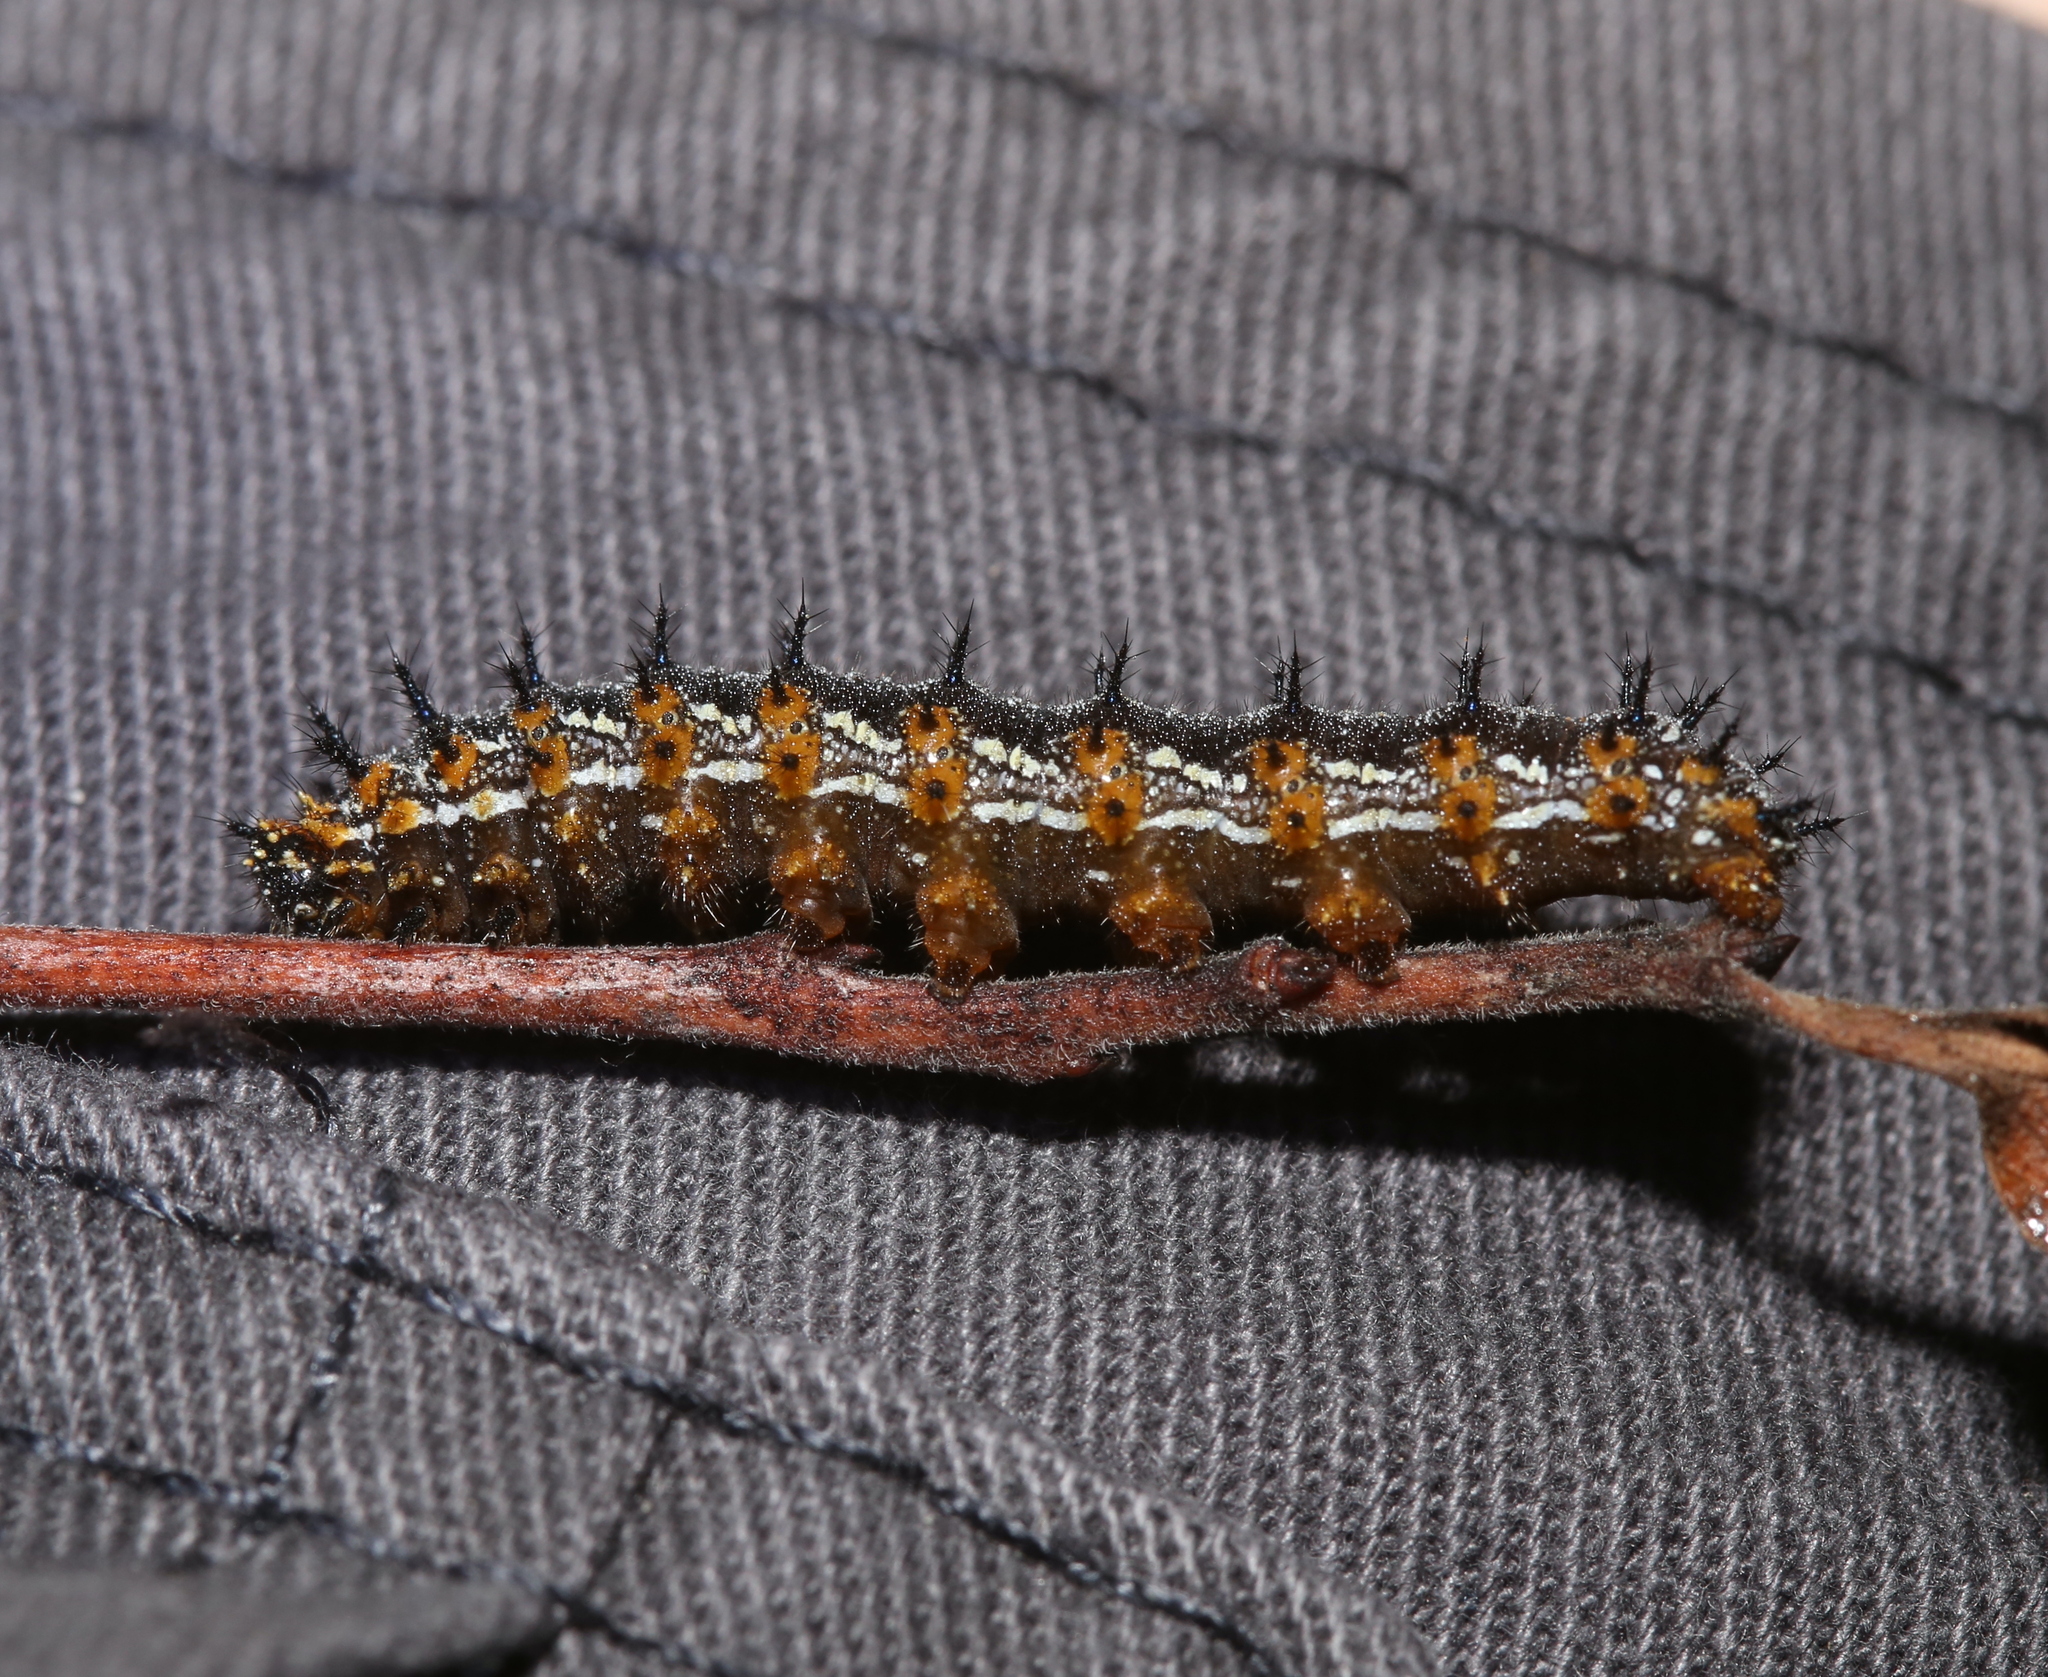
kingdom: Animalia
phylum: Arthropoda
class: Insecta
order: Lepidoptera
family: Nymphalidae
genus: Junonia
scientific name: Junonia coenia
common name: Common buckeye
